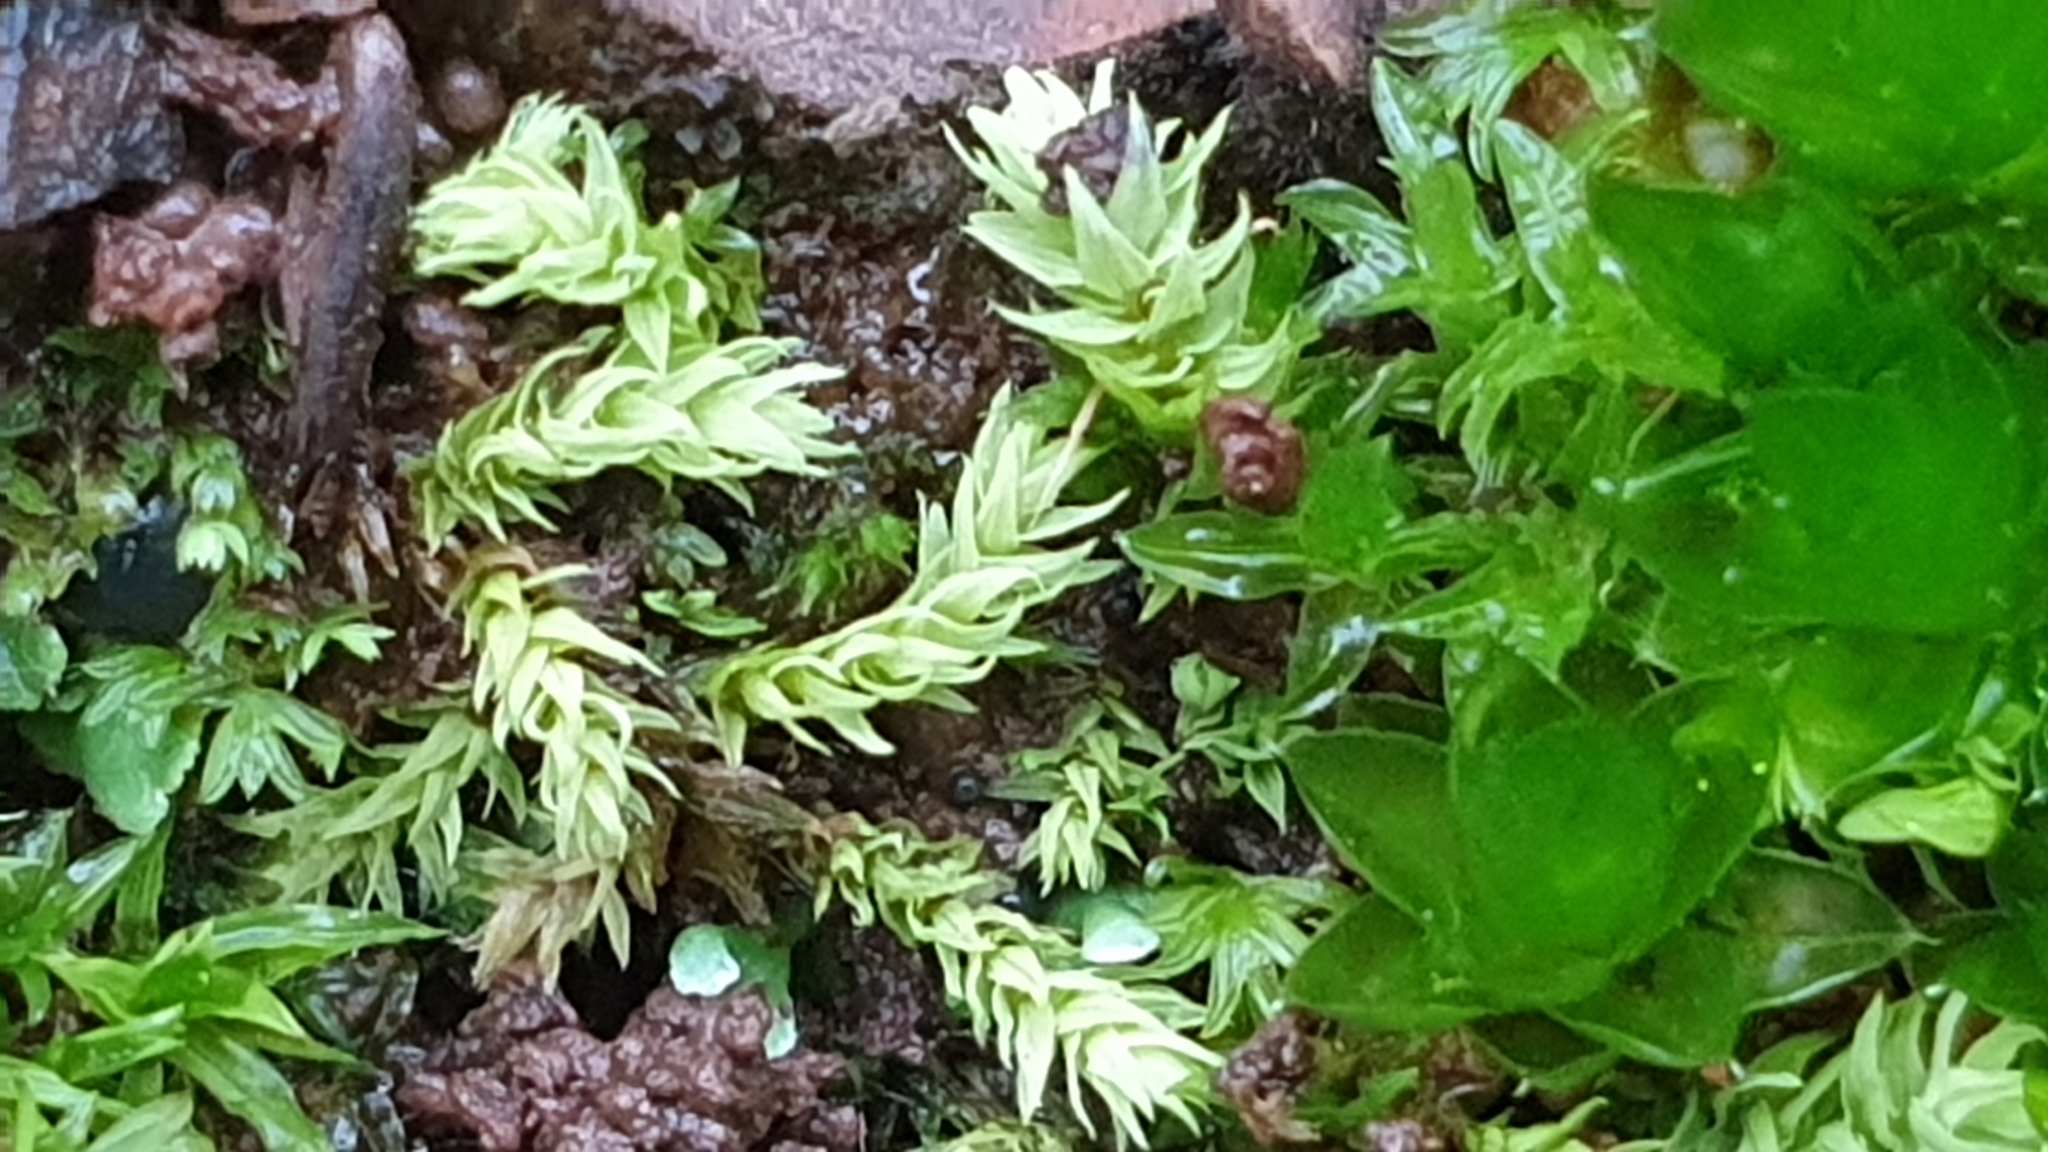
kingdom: Plantae
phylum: Bryophyta
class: Bryopsida
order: Pottiales
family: Pottiaceae
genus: Triquetrella
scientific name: Triquetrella papillata
